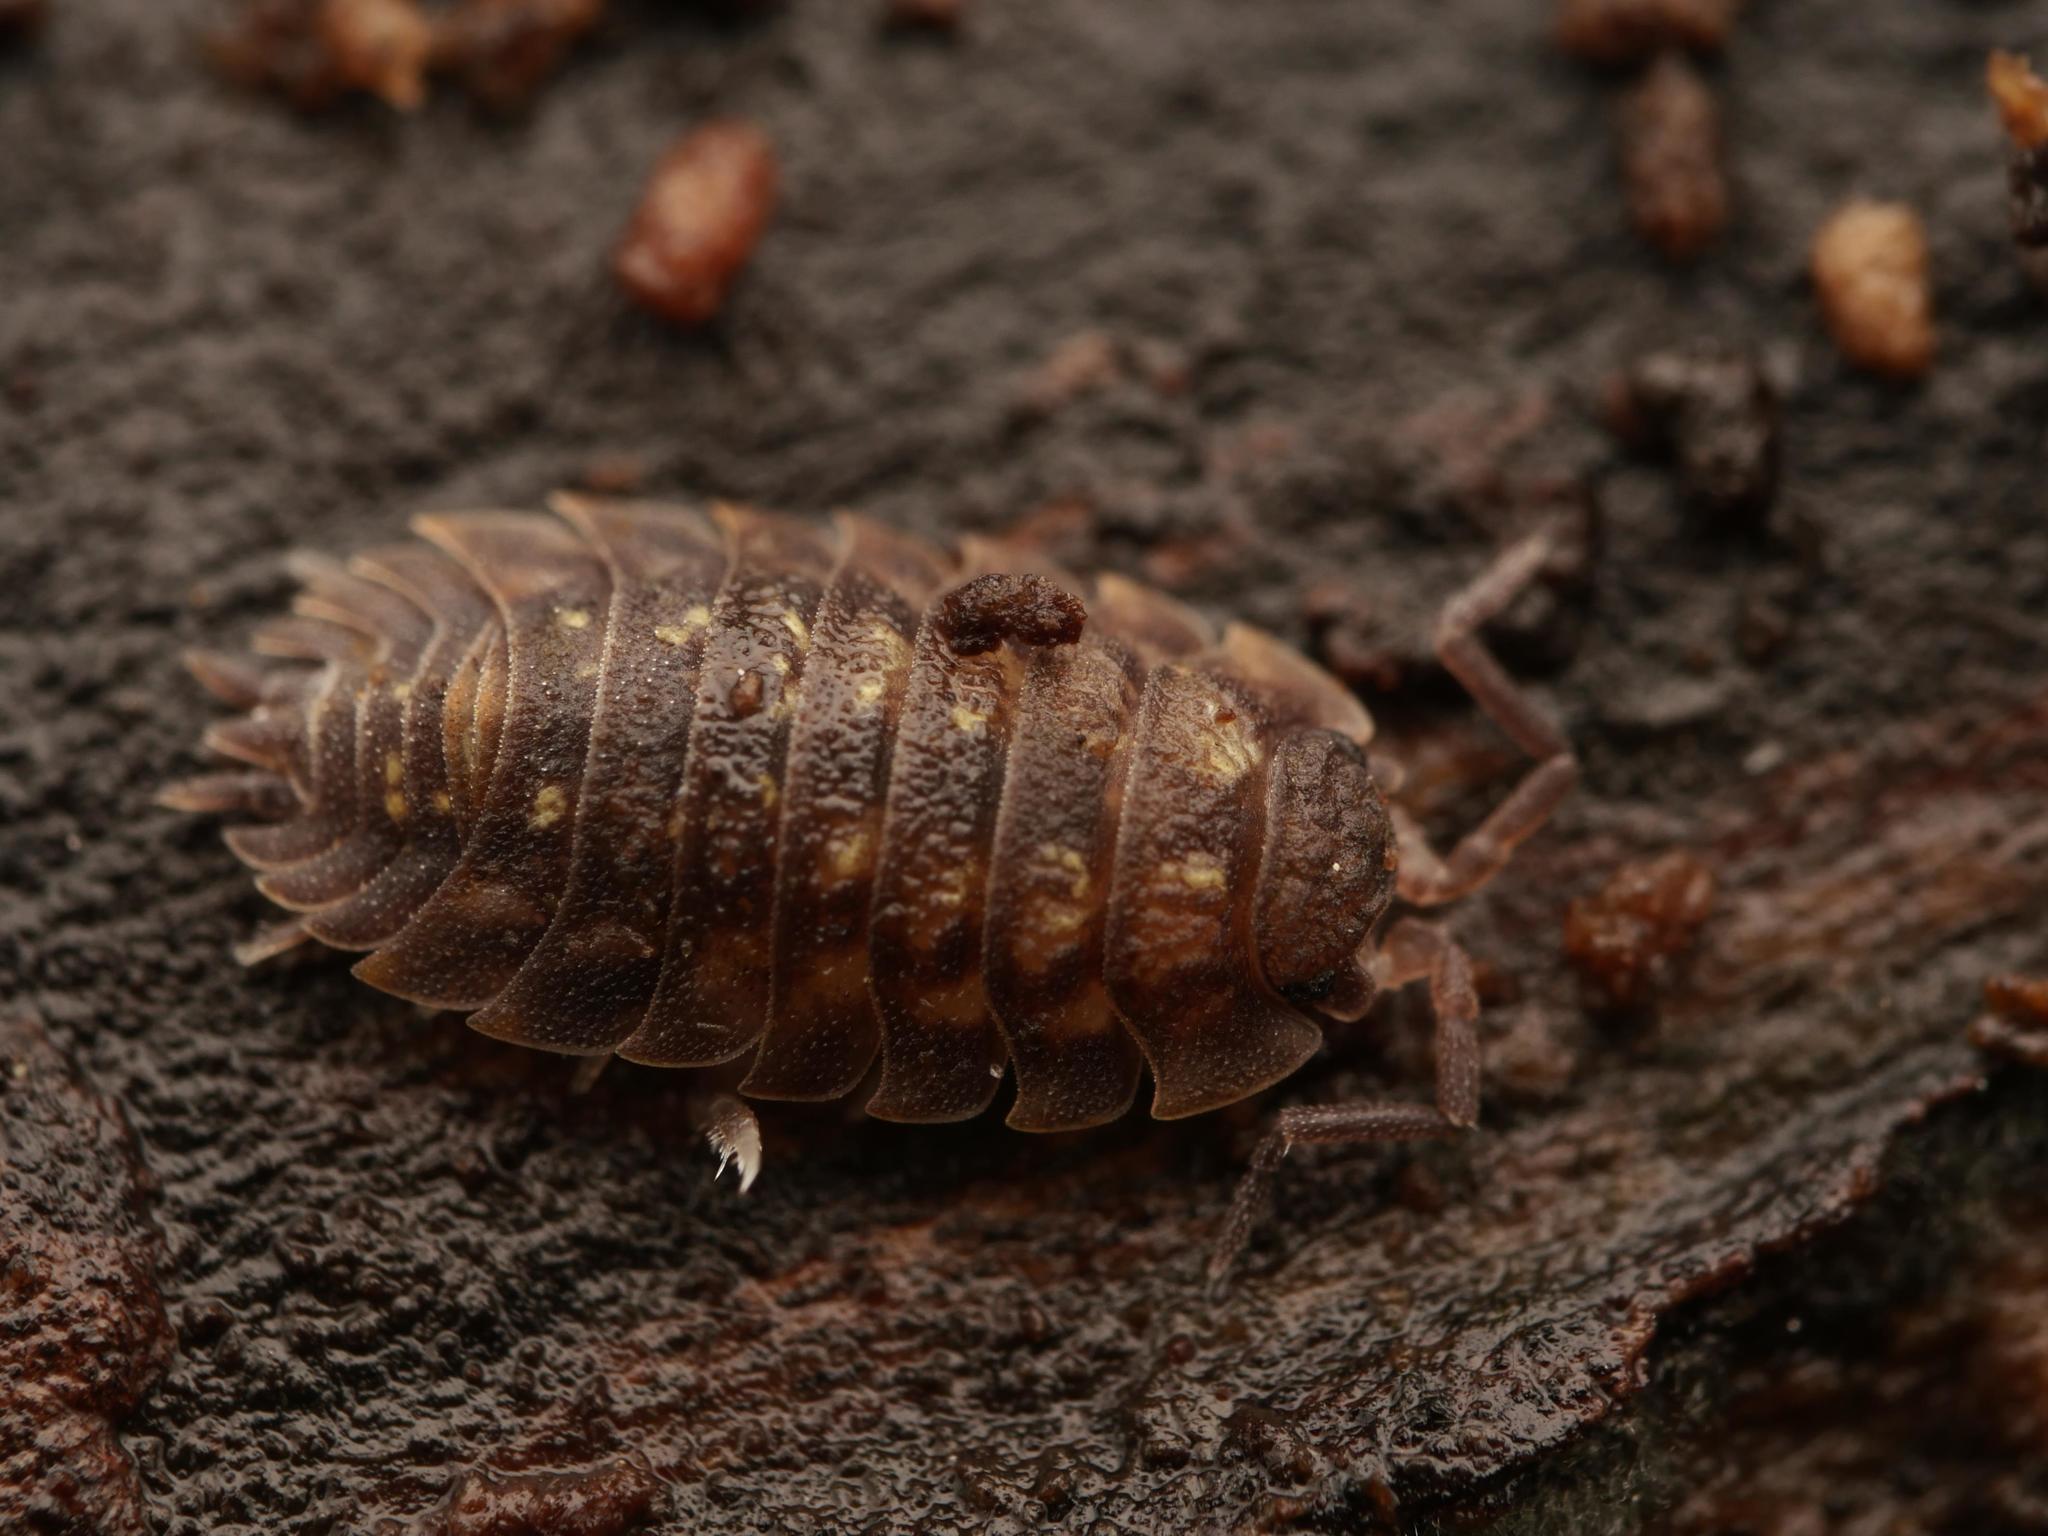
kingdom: Animalia
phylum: Arthropoda
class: Malacostraca
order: Isopoda
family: Oniscidae
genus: Oniscus
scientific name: Oniscus asellus
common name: Common shiny woodlouse
